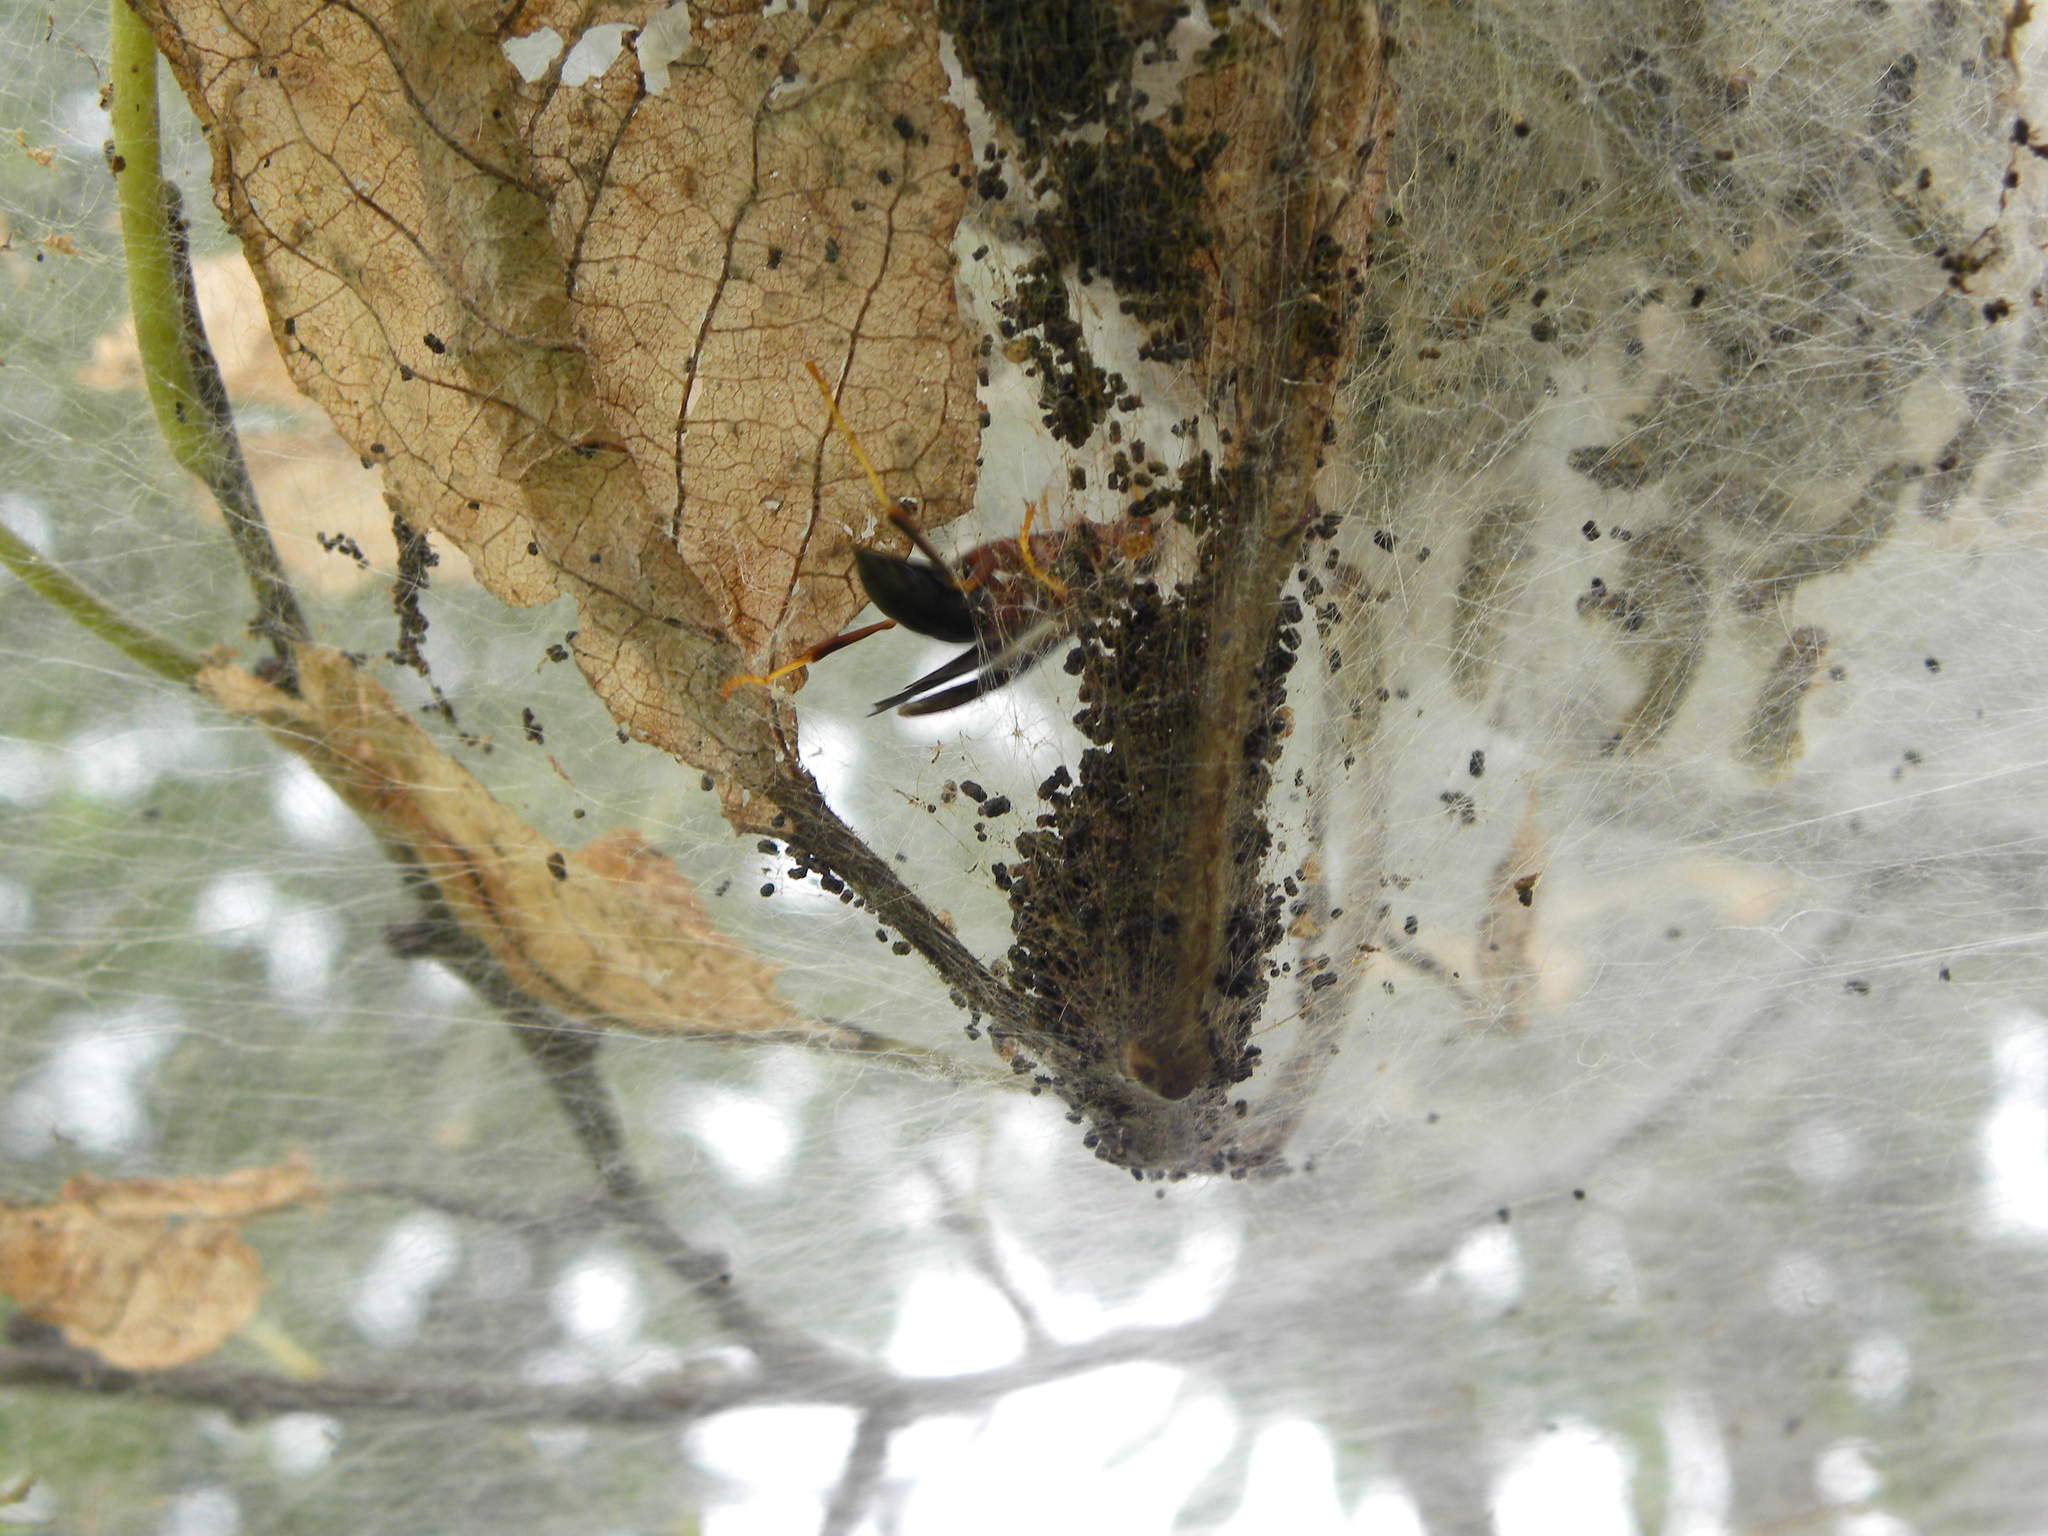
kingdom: Animalia
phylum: Arthropoda
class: Insecta
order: Hymenoptera
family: Eumenidae
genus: Polistes
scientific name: Polistes metricus
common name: Metric paper wasp
